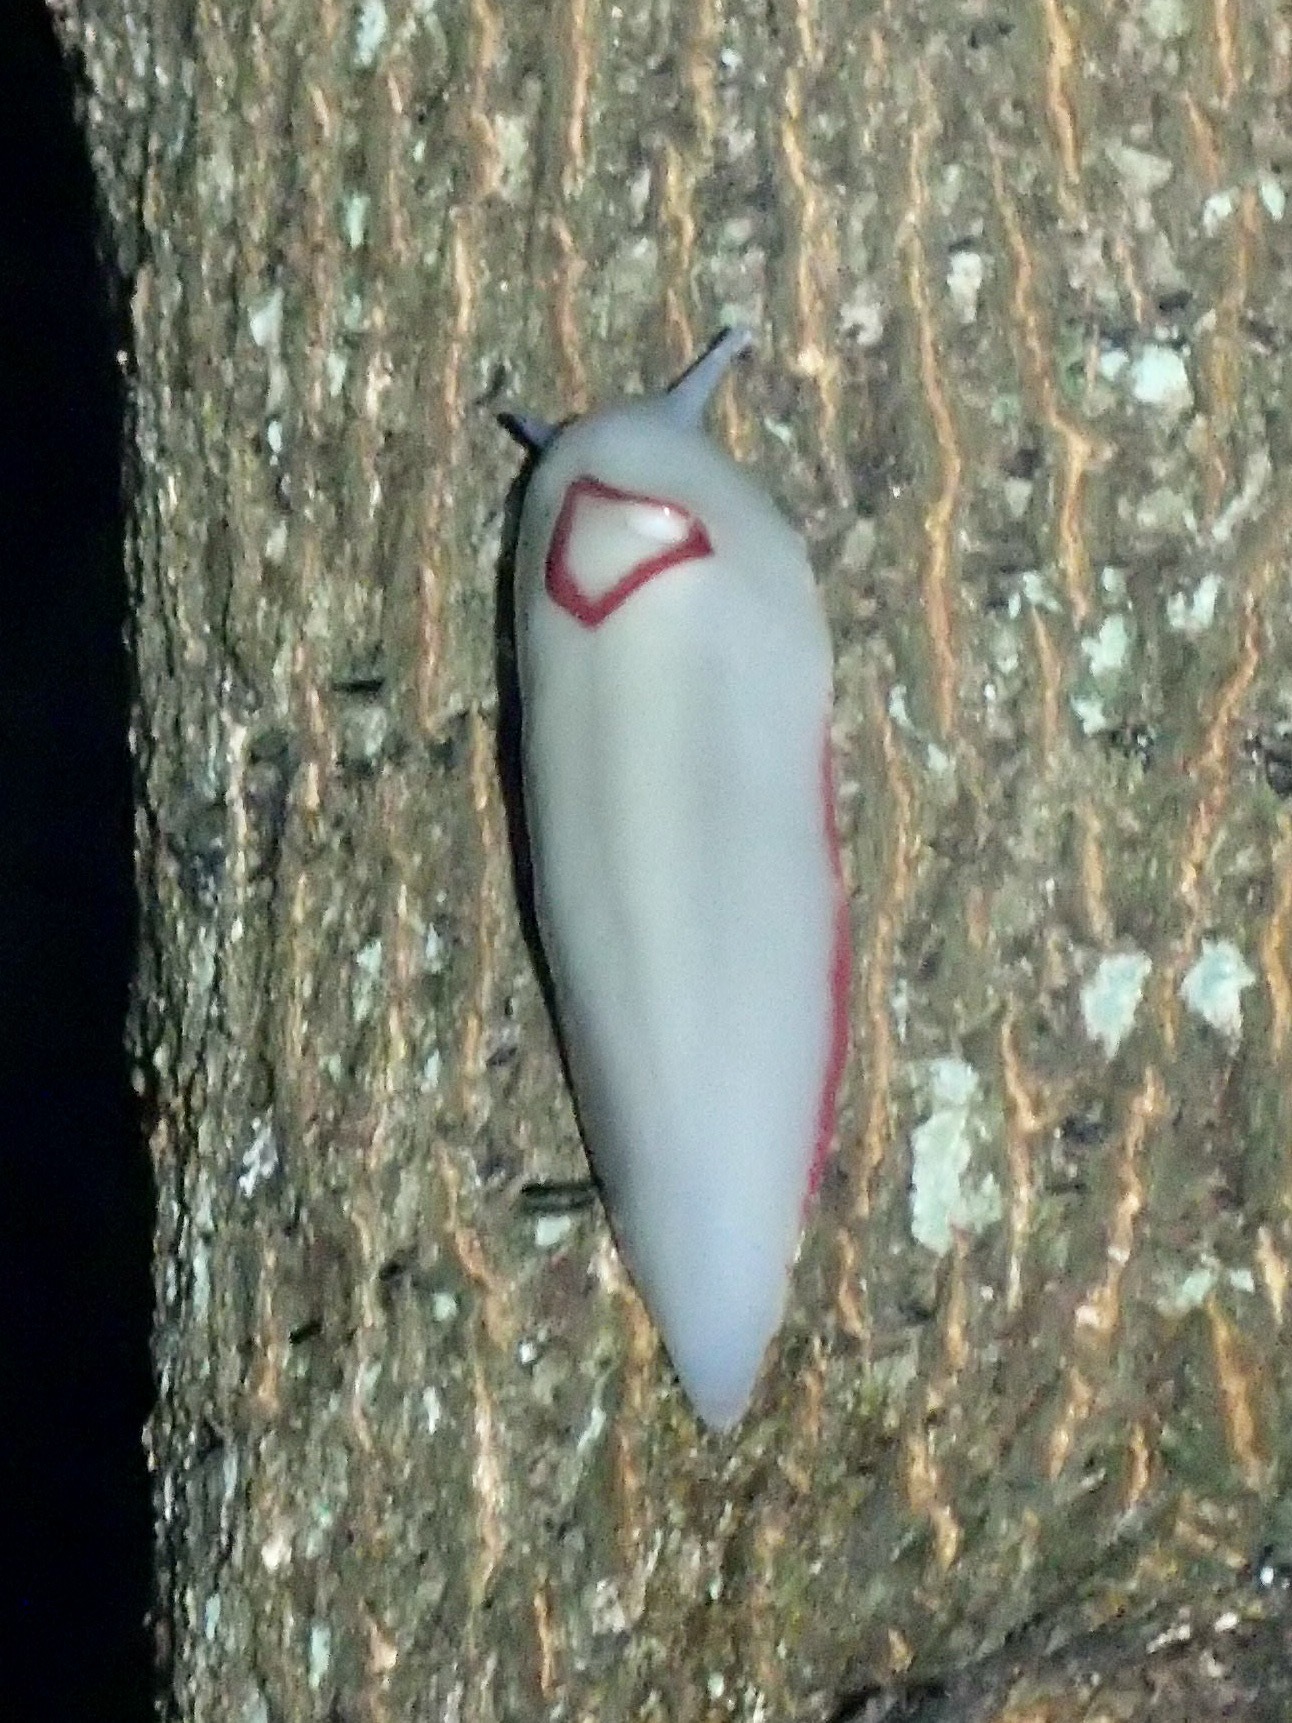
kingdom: Animalia
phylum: Mollusca
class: Gastropoda
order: Stylommatophora
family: Athoracophoridae
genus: Triboniophorus
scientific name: Triboniophorus graeffei
